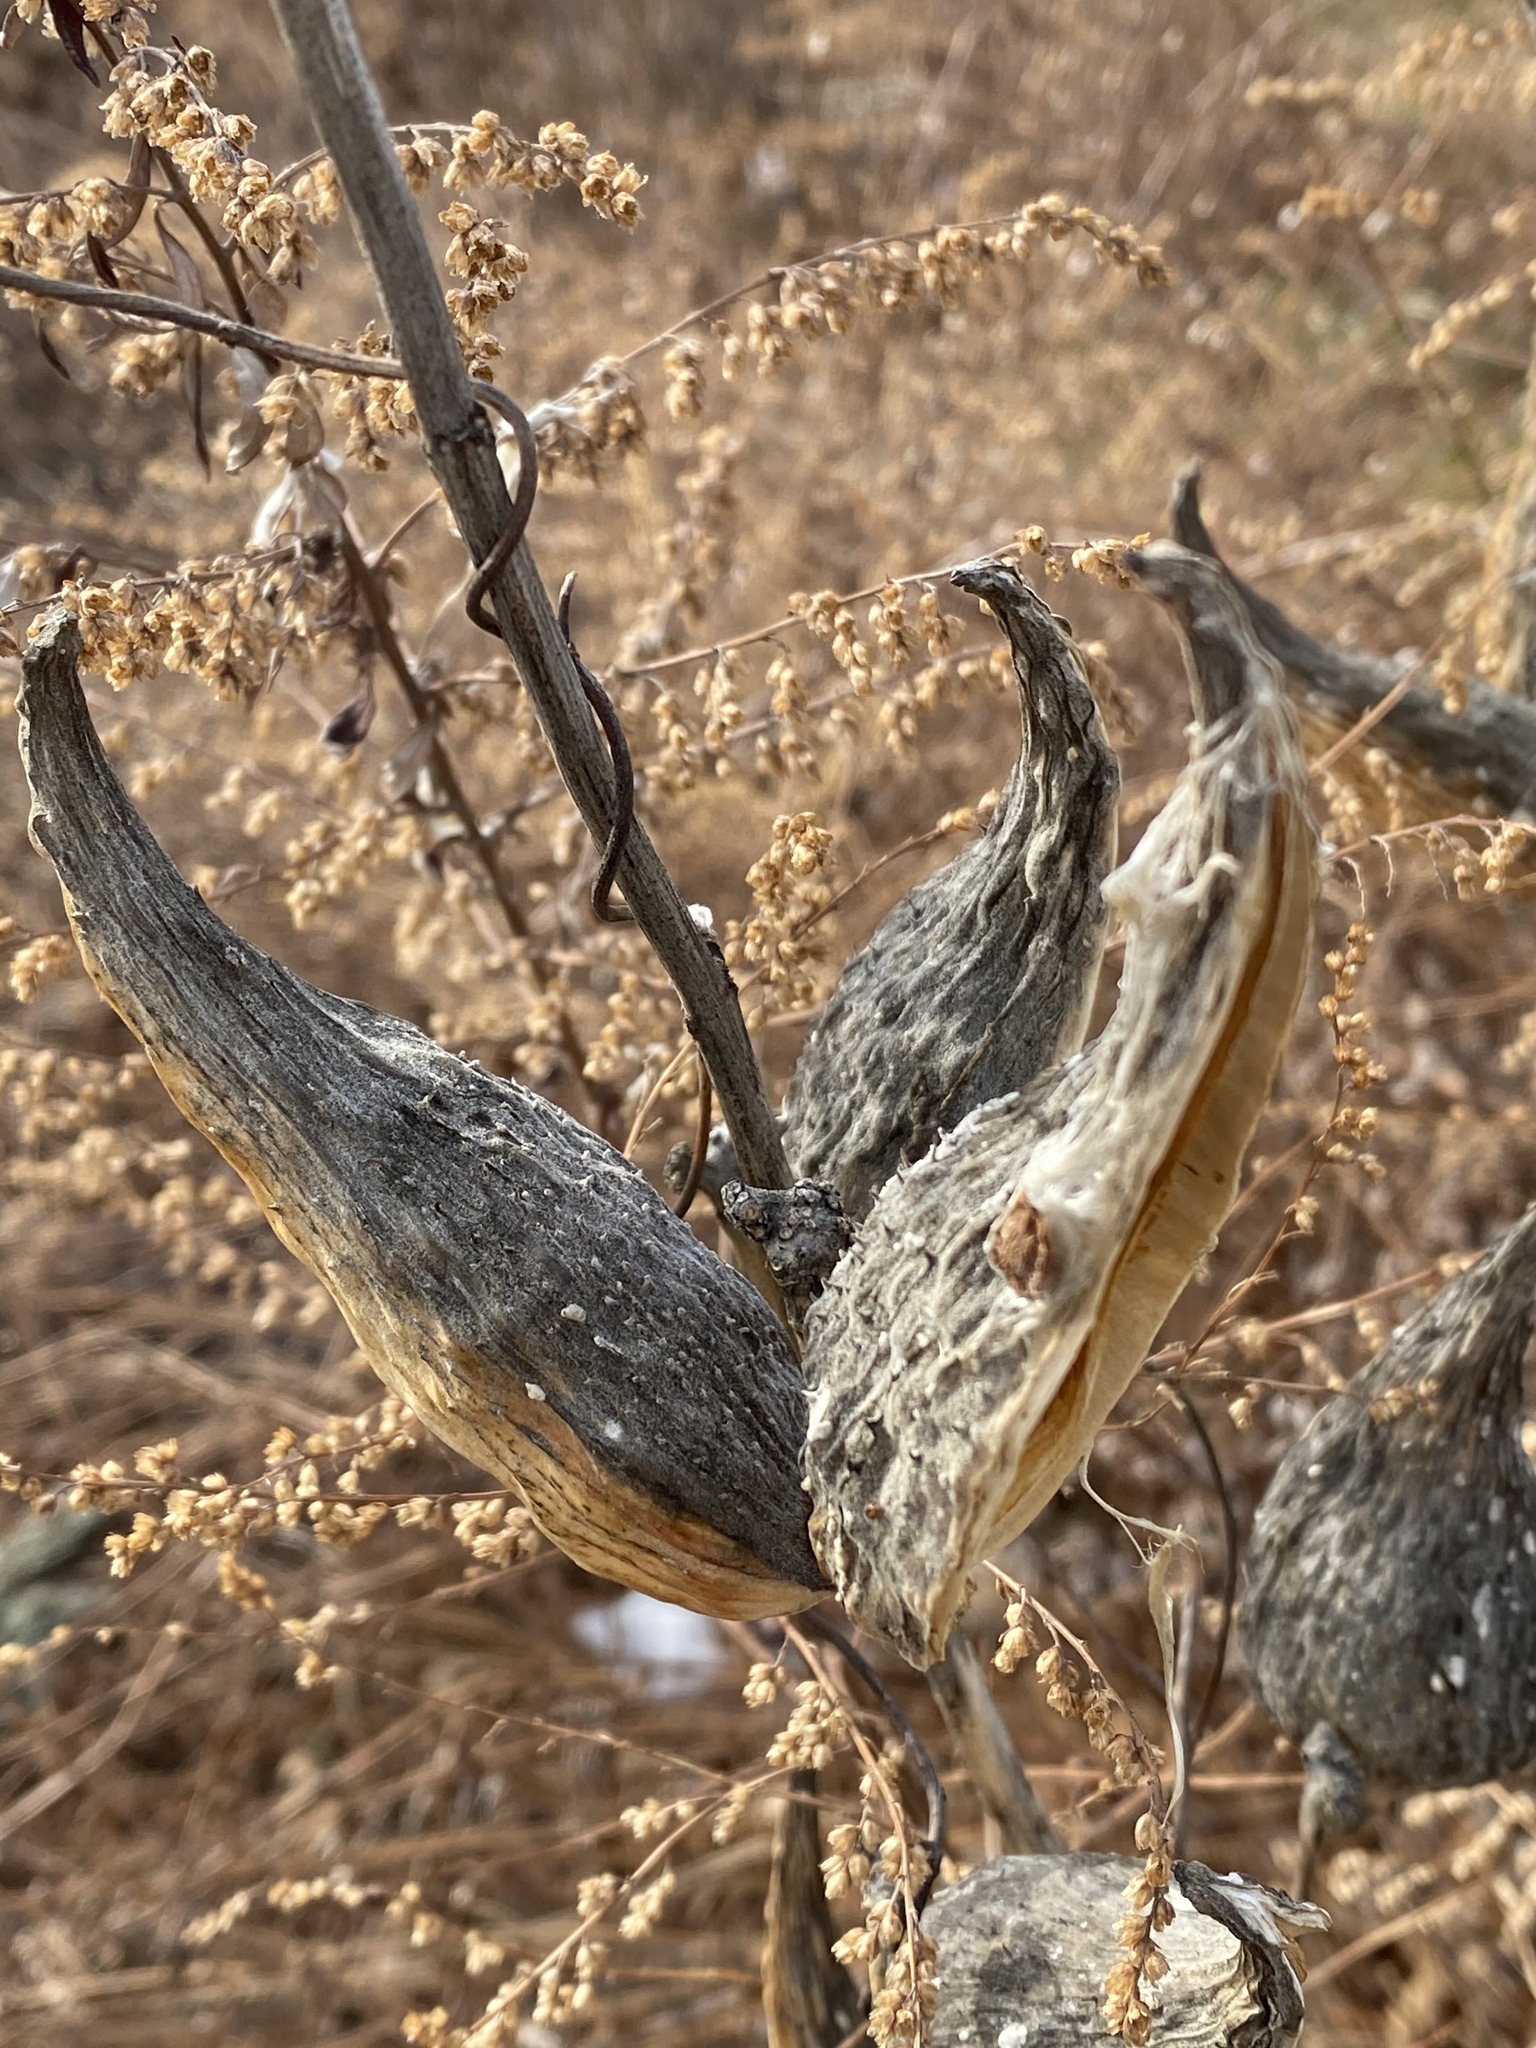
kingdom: Plantae
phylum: Tracheophyta
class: Magnoliopsida
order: Gentianales
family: Apocynaceae
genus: Asclepias
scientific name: Asclepias syriaca
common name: Common milkweed
